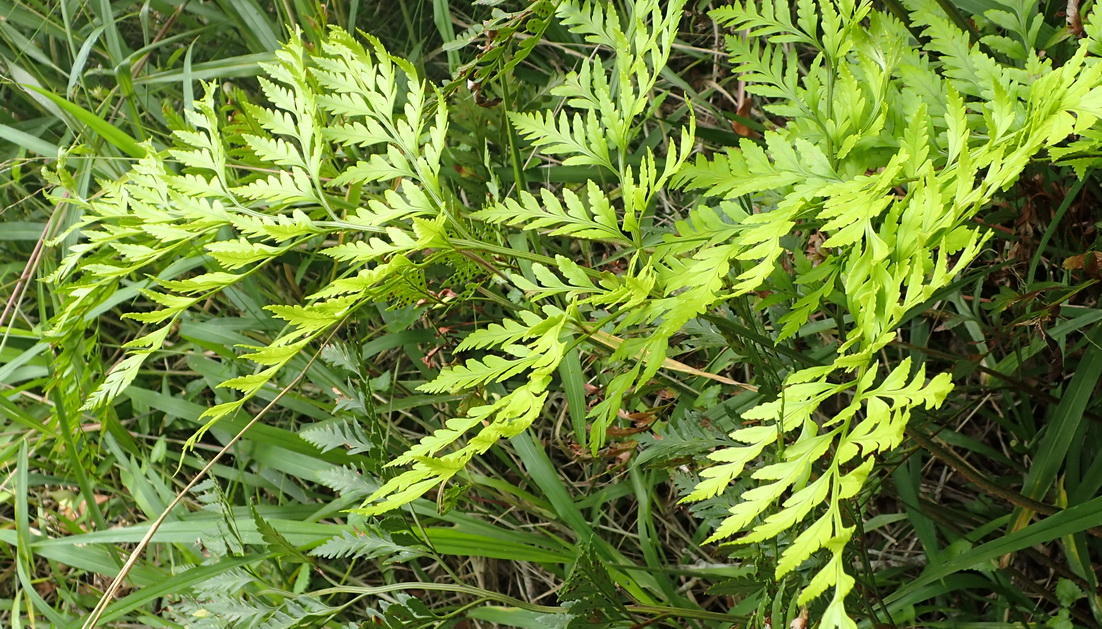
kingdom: Plantae
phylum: Tracheophyta
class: Polypodiopsida
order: Polypodiales
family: Dryopteridaceae
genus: Rumohra
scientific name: Rumohra adiantiformis
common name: Leather fern
